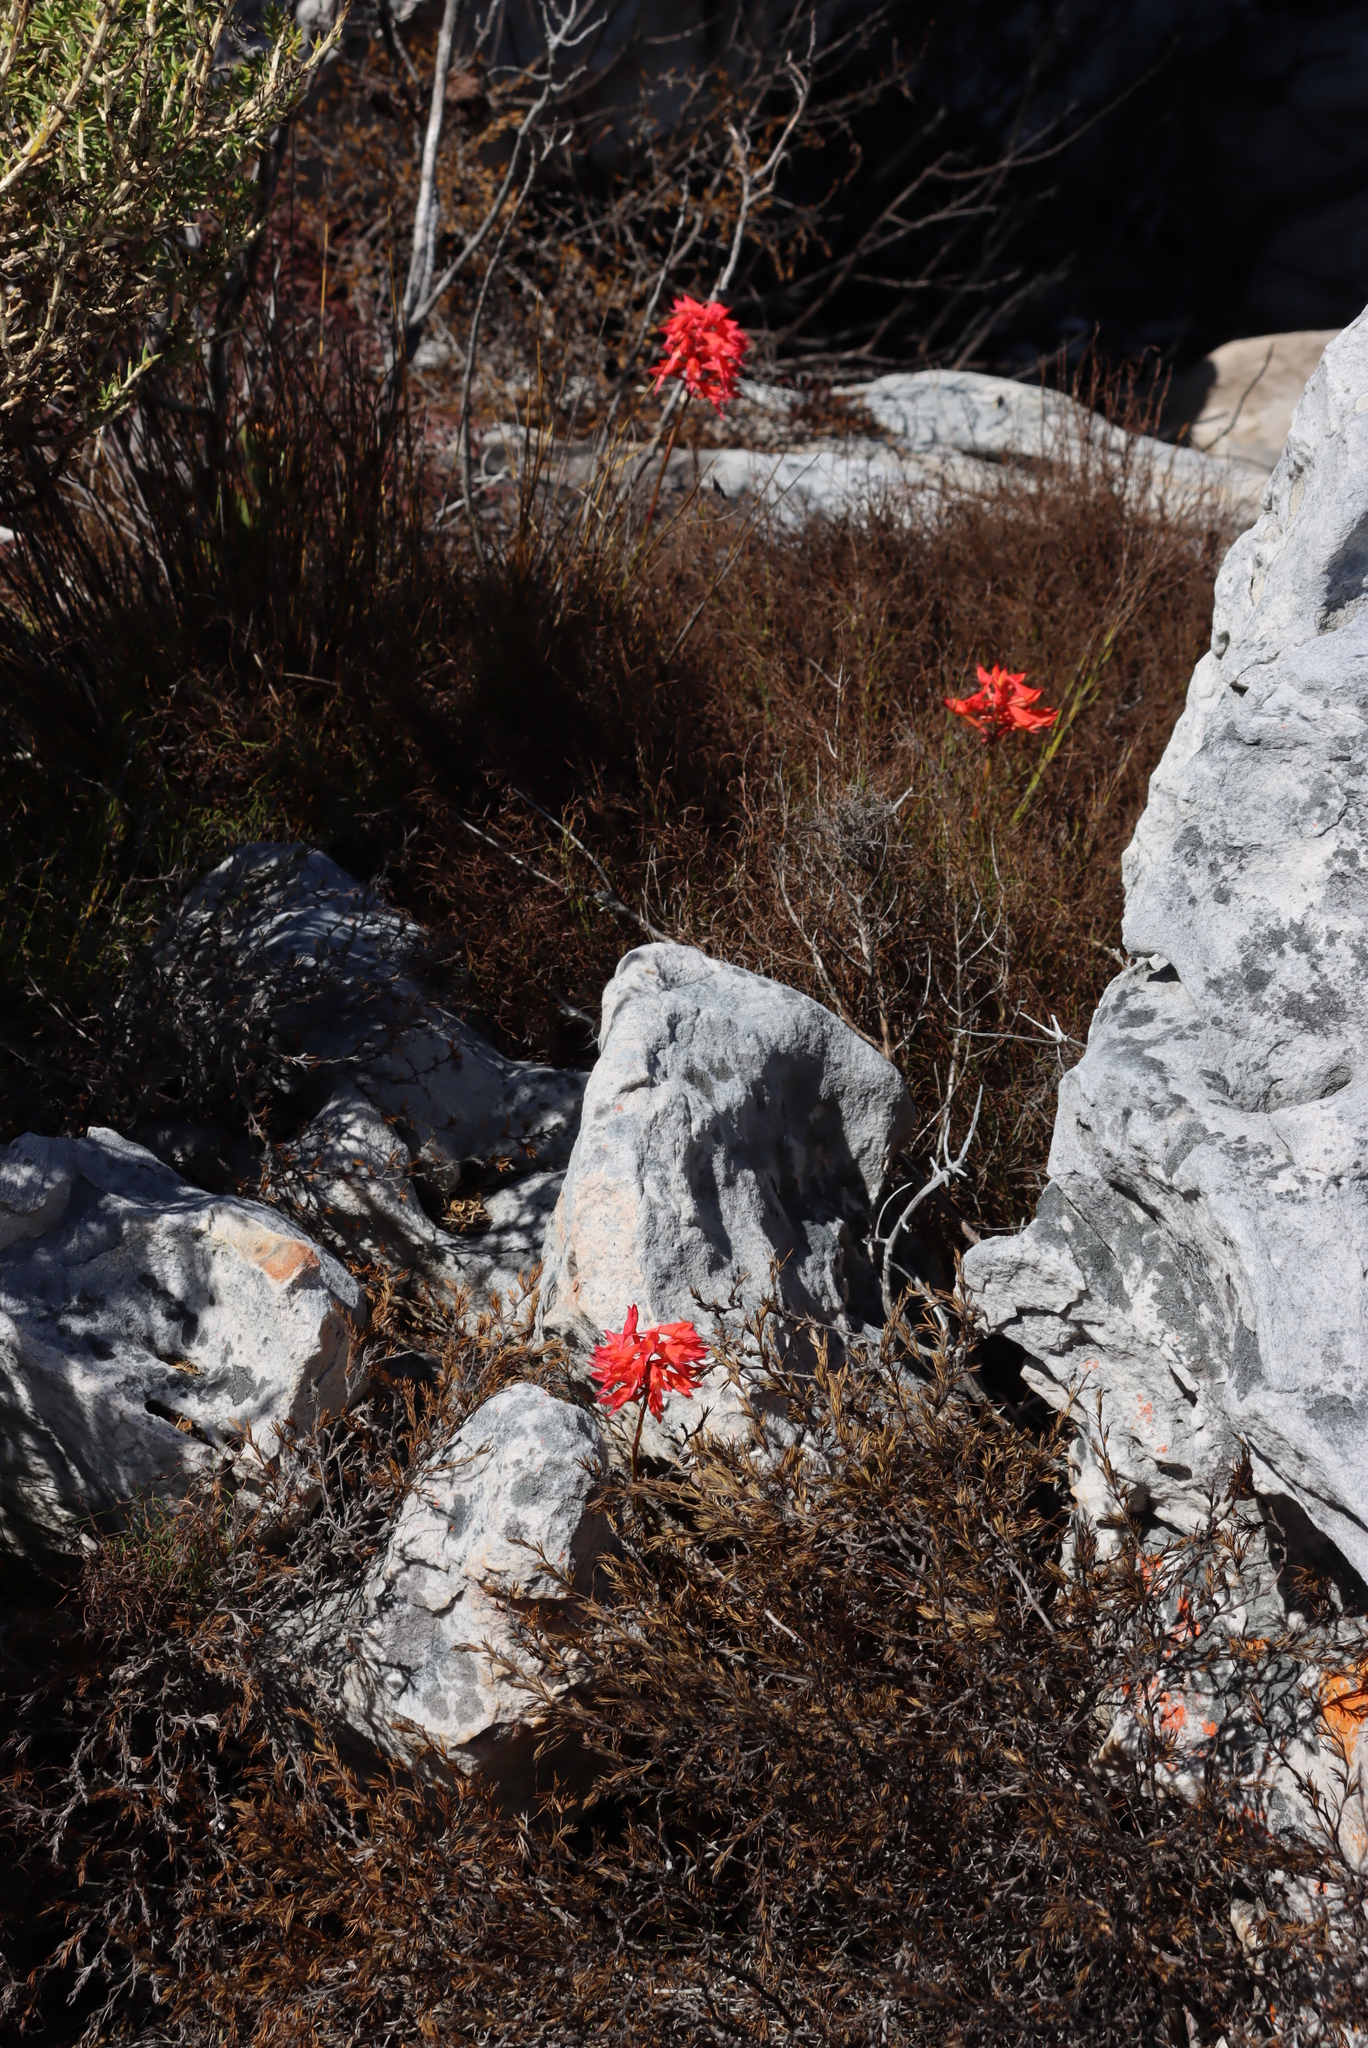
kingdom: Plantae
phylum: Tracheophyta
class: Liliopsida
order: Asparagales
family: Orchidaceae
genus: Disa
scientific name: Disa ferruginea
